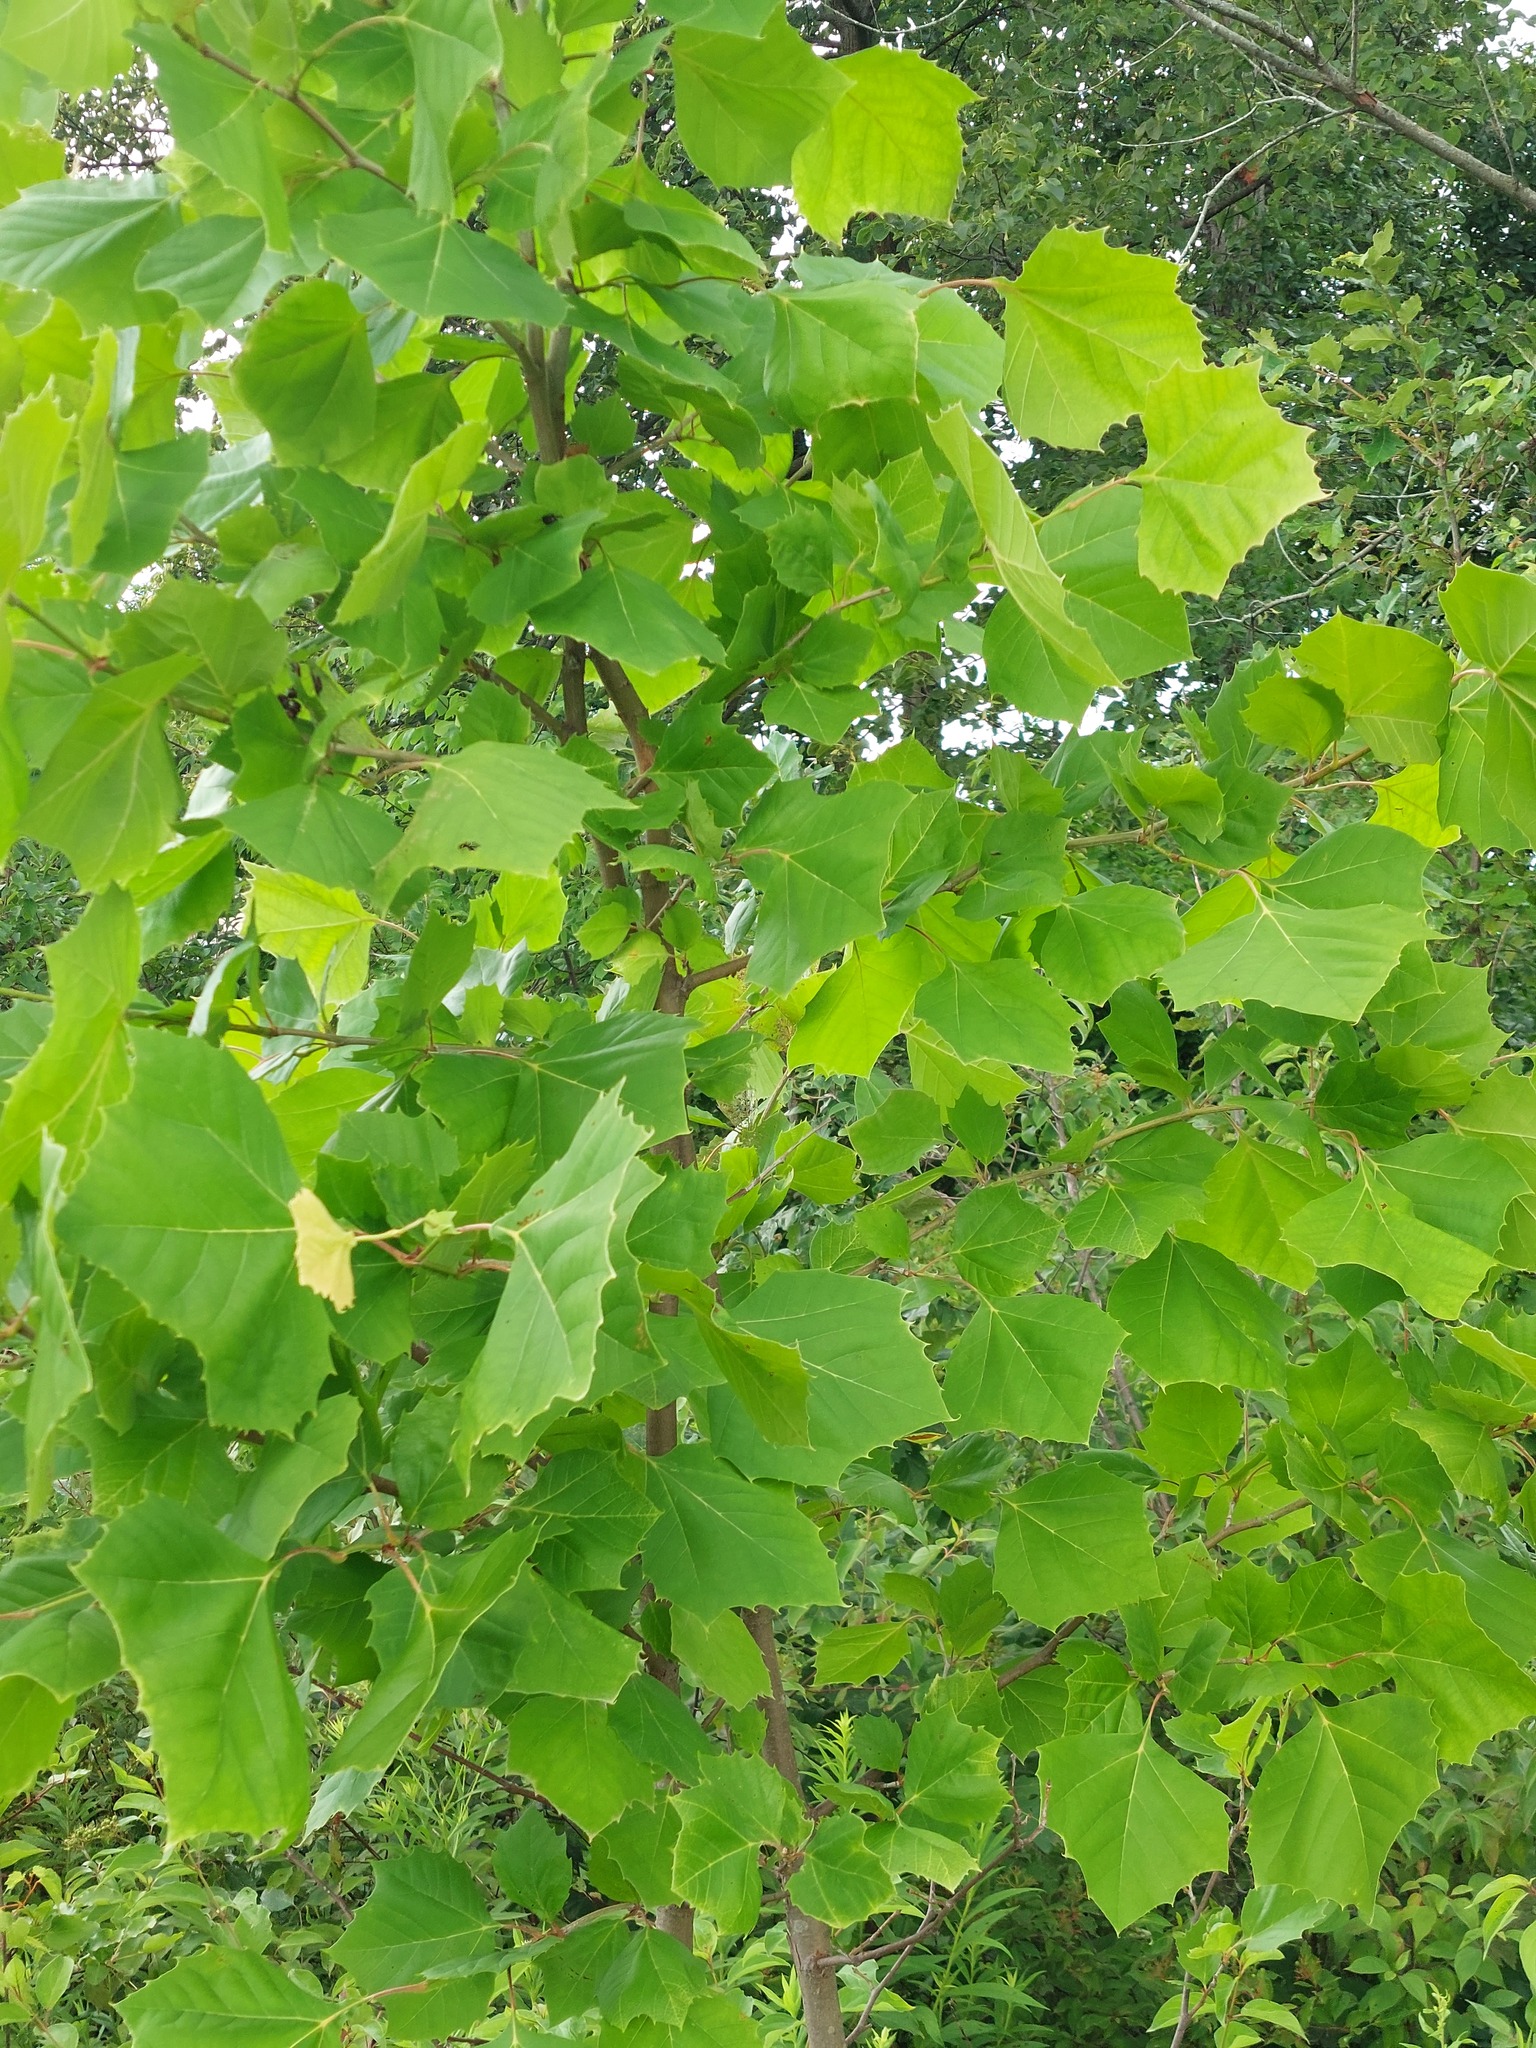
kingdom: Plantae
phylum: Tracheophyta
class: Magnoliopsida
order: Proteales
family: Platanaceae
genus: Platanus
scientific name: Platanus occidentalis
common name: American sycamore
